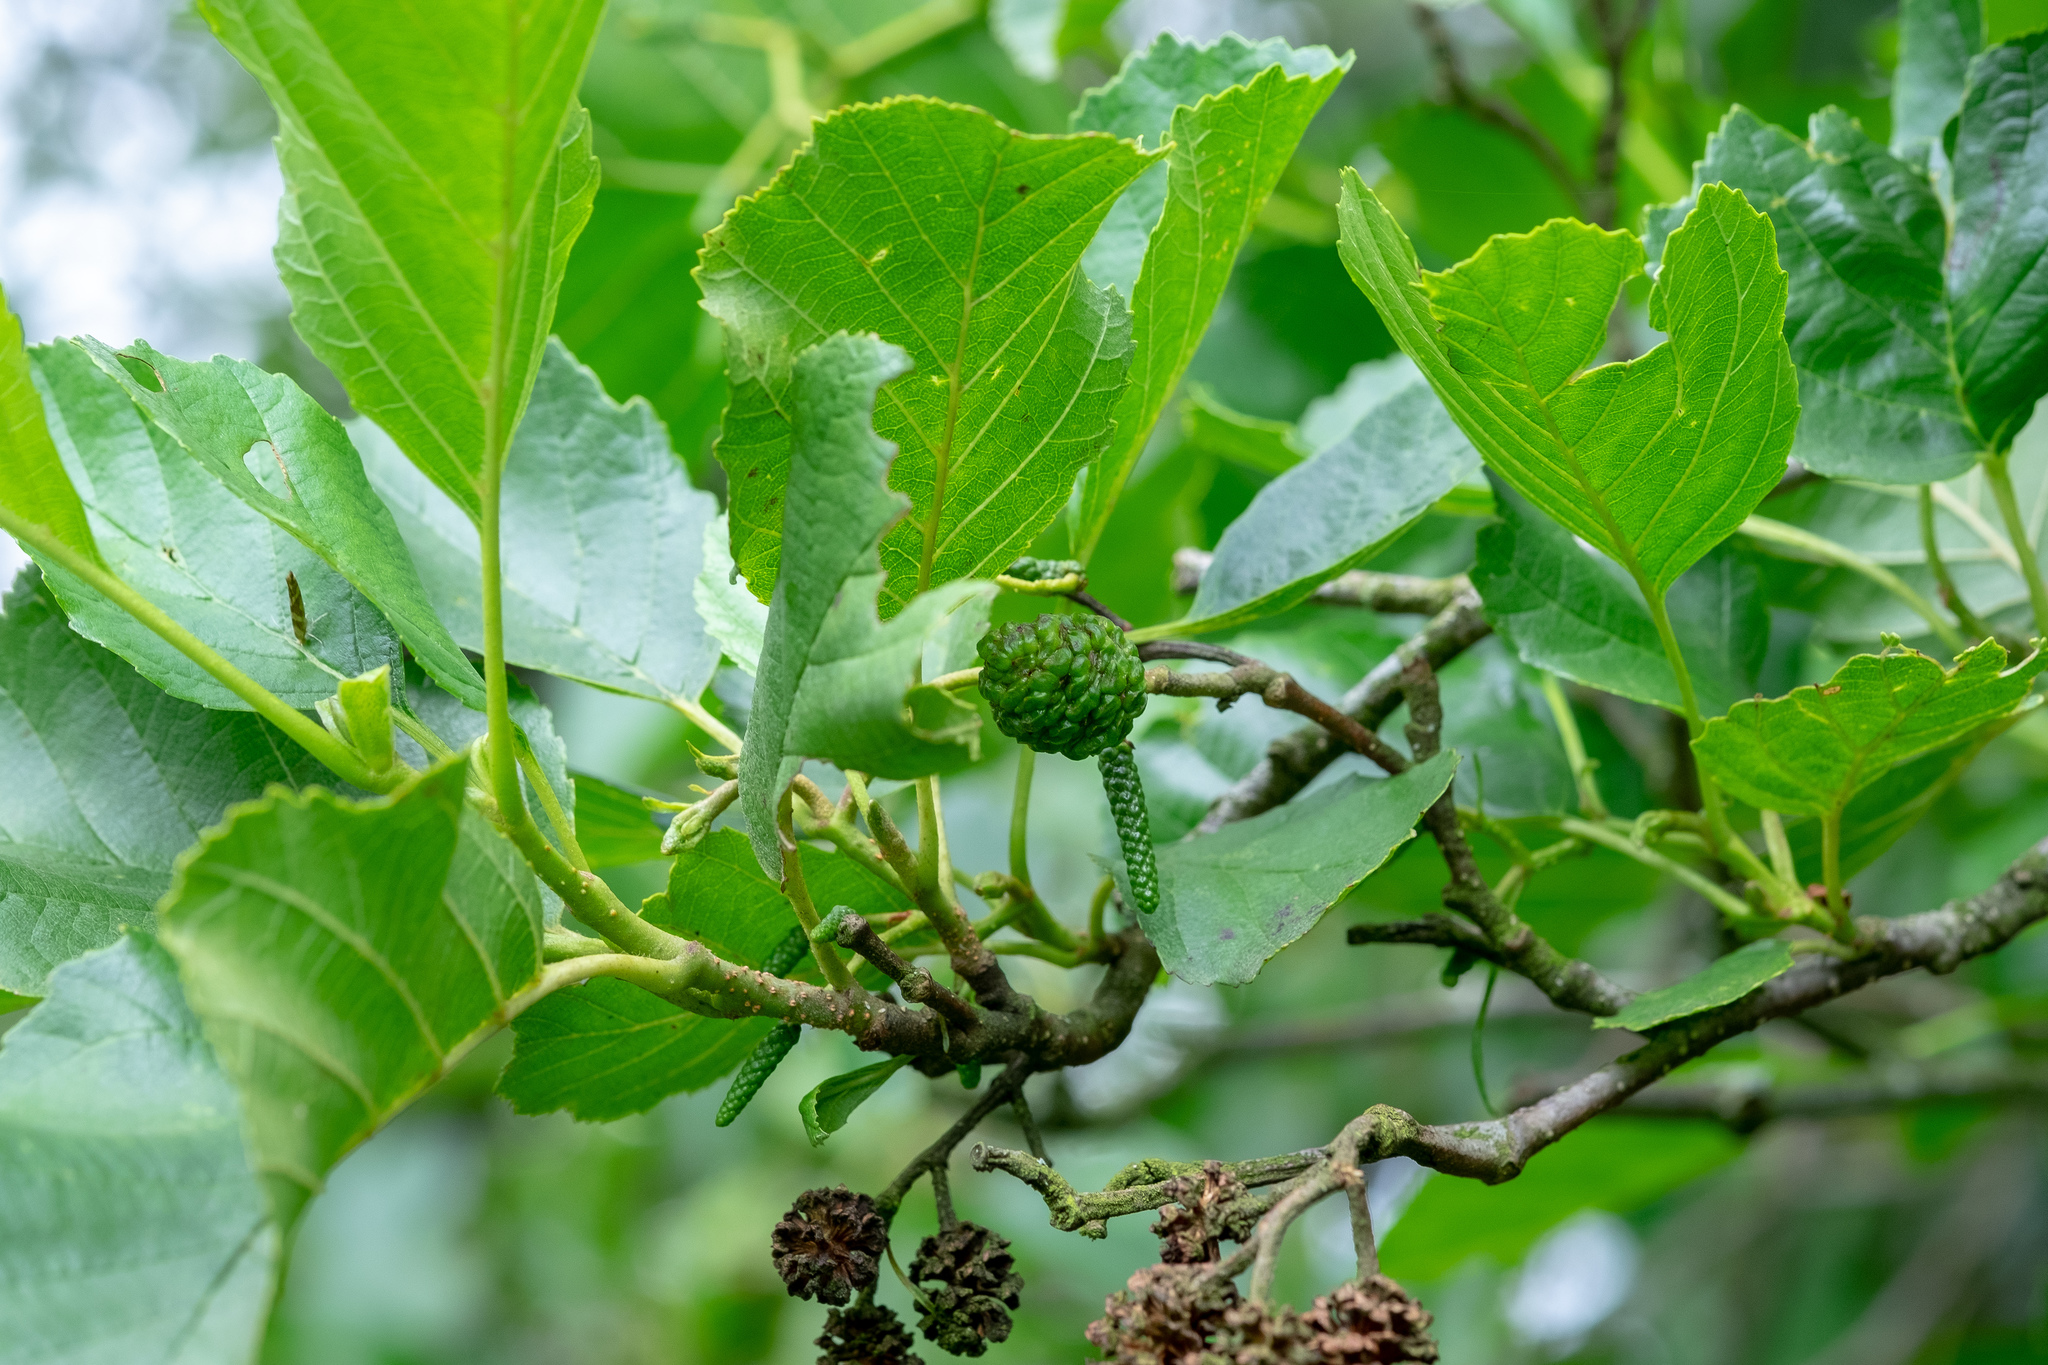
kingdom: Plantae
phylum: Tracheophyta
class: Magnoliopsida
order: Fagales
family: Betulaceae
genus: Alnus
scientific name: Alnus glutinosa
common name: Black alder
